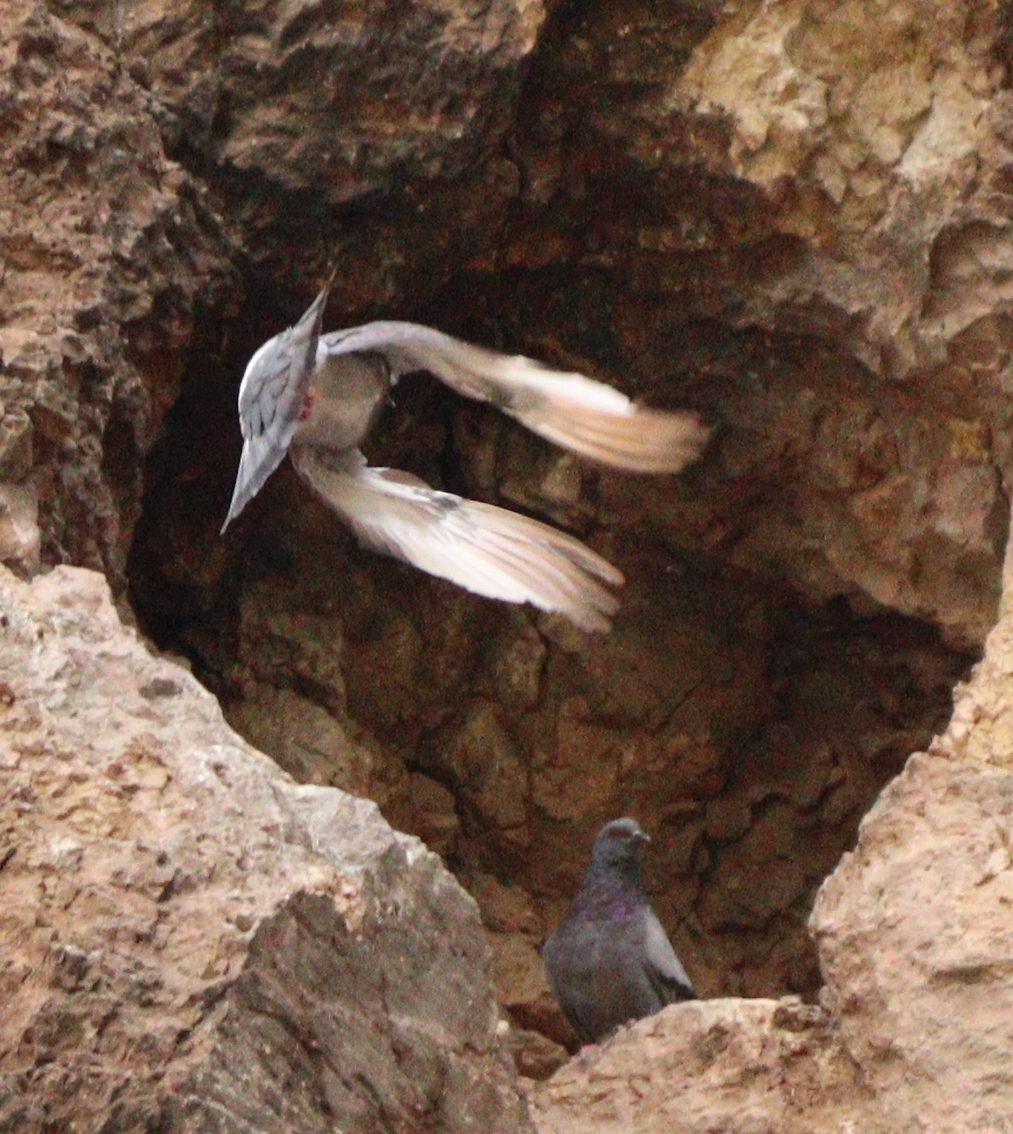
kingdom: Animalia
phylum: Chordata
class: Aves
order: Columbiformes
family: Columbidae
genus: Columba
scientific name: Columba livia
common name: Rock pigeon
